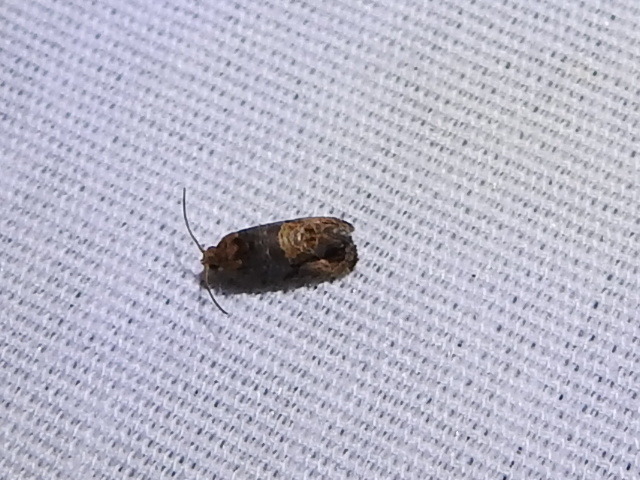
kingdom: Animalia
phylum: Arthropoda
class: Insecta
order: Lepidoptera
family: Tortricidae
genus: Paralobesia
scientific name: Paralobesia viteana
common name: Grape berry moth
